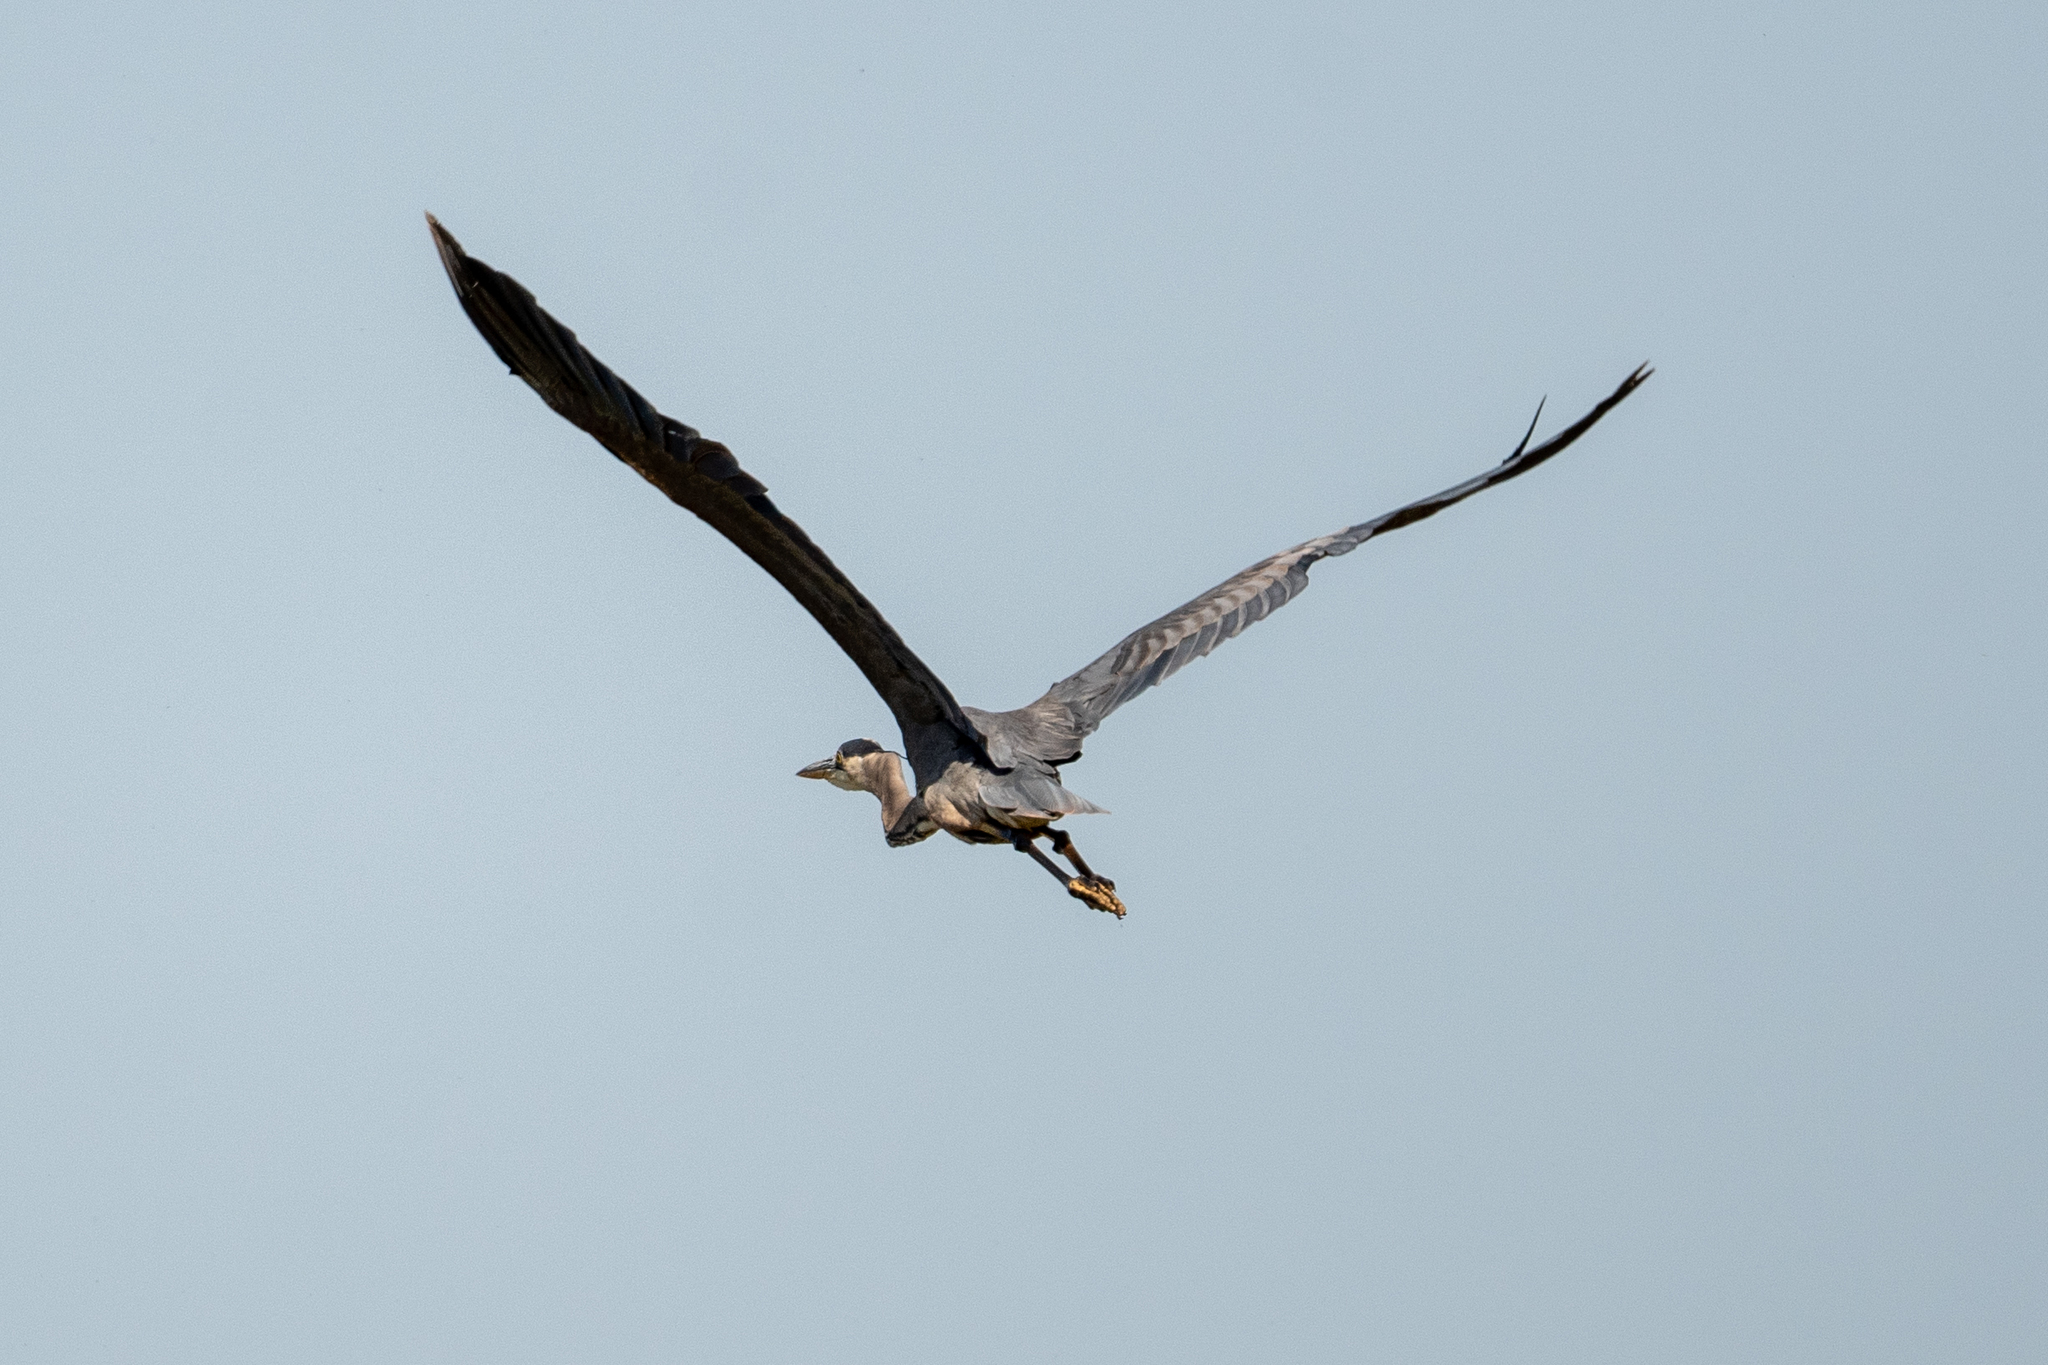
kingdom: Animalia
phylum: Chordata
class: Aves
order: Pelecaniformes
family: Ardeidae
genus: Ardea
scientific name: Ardea herodias
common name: Great blue heron
